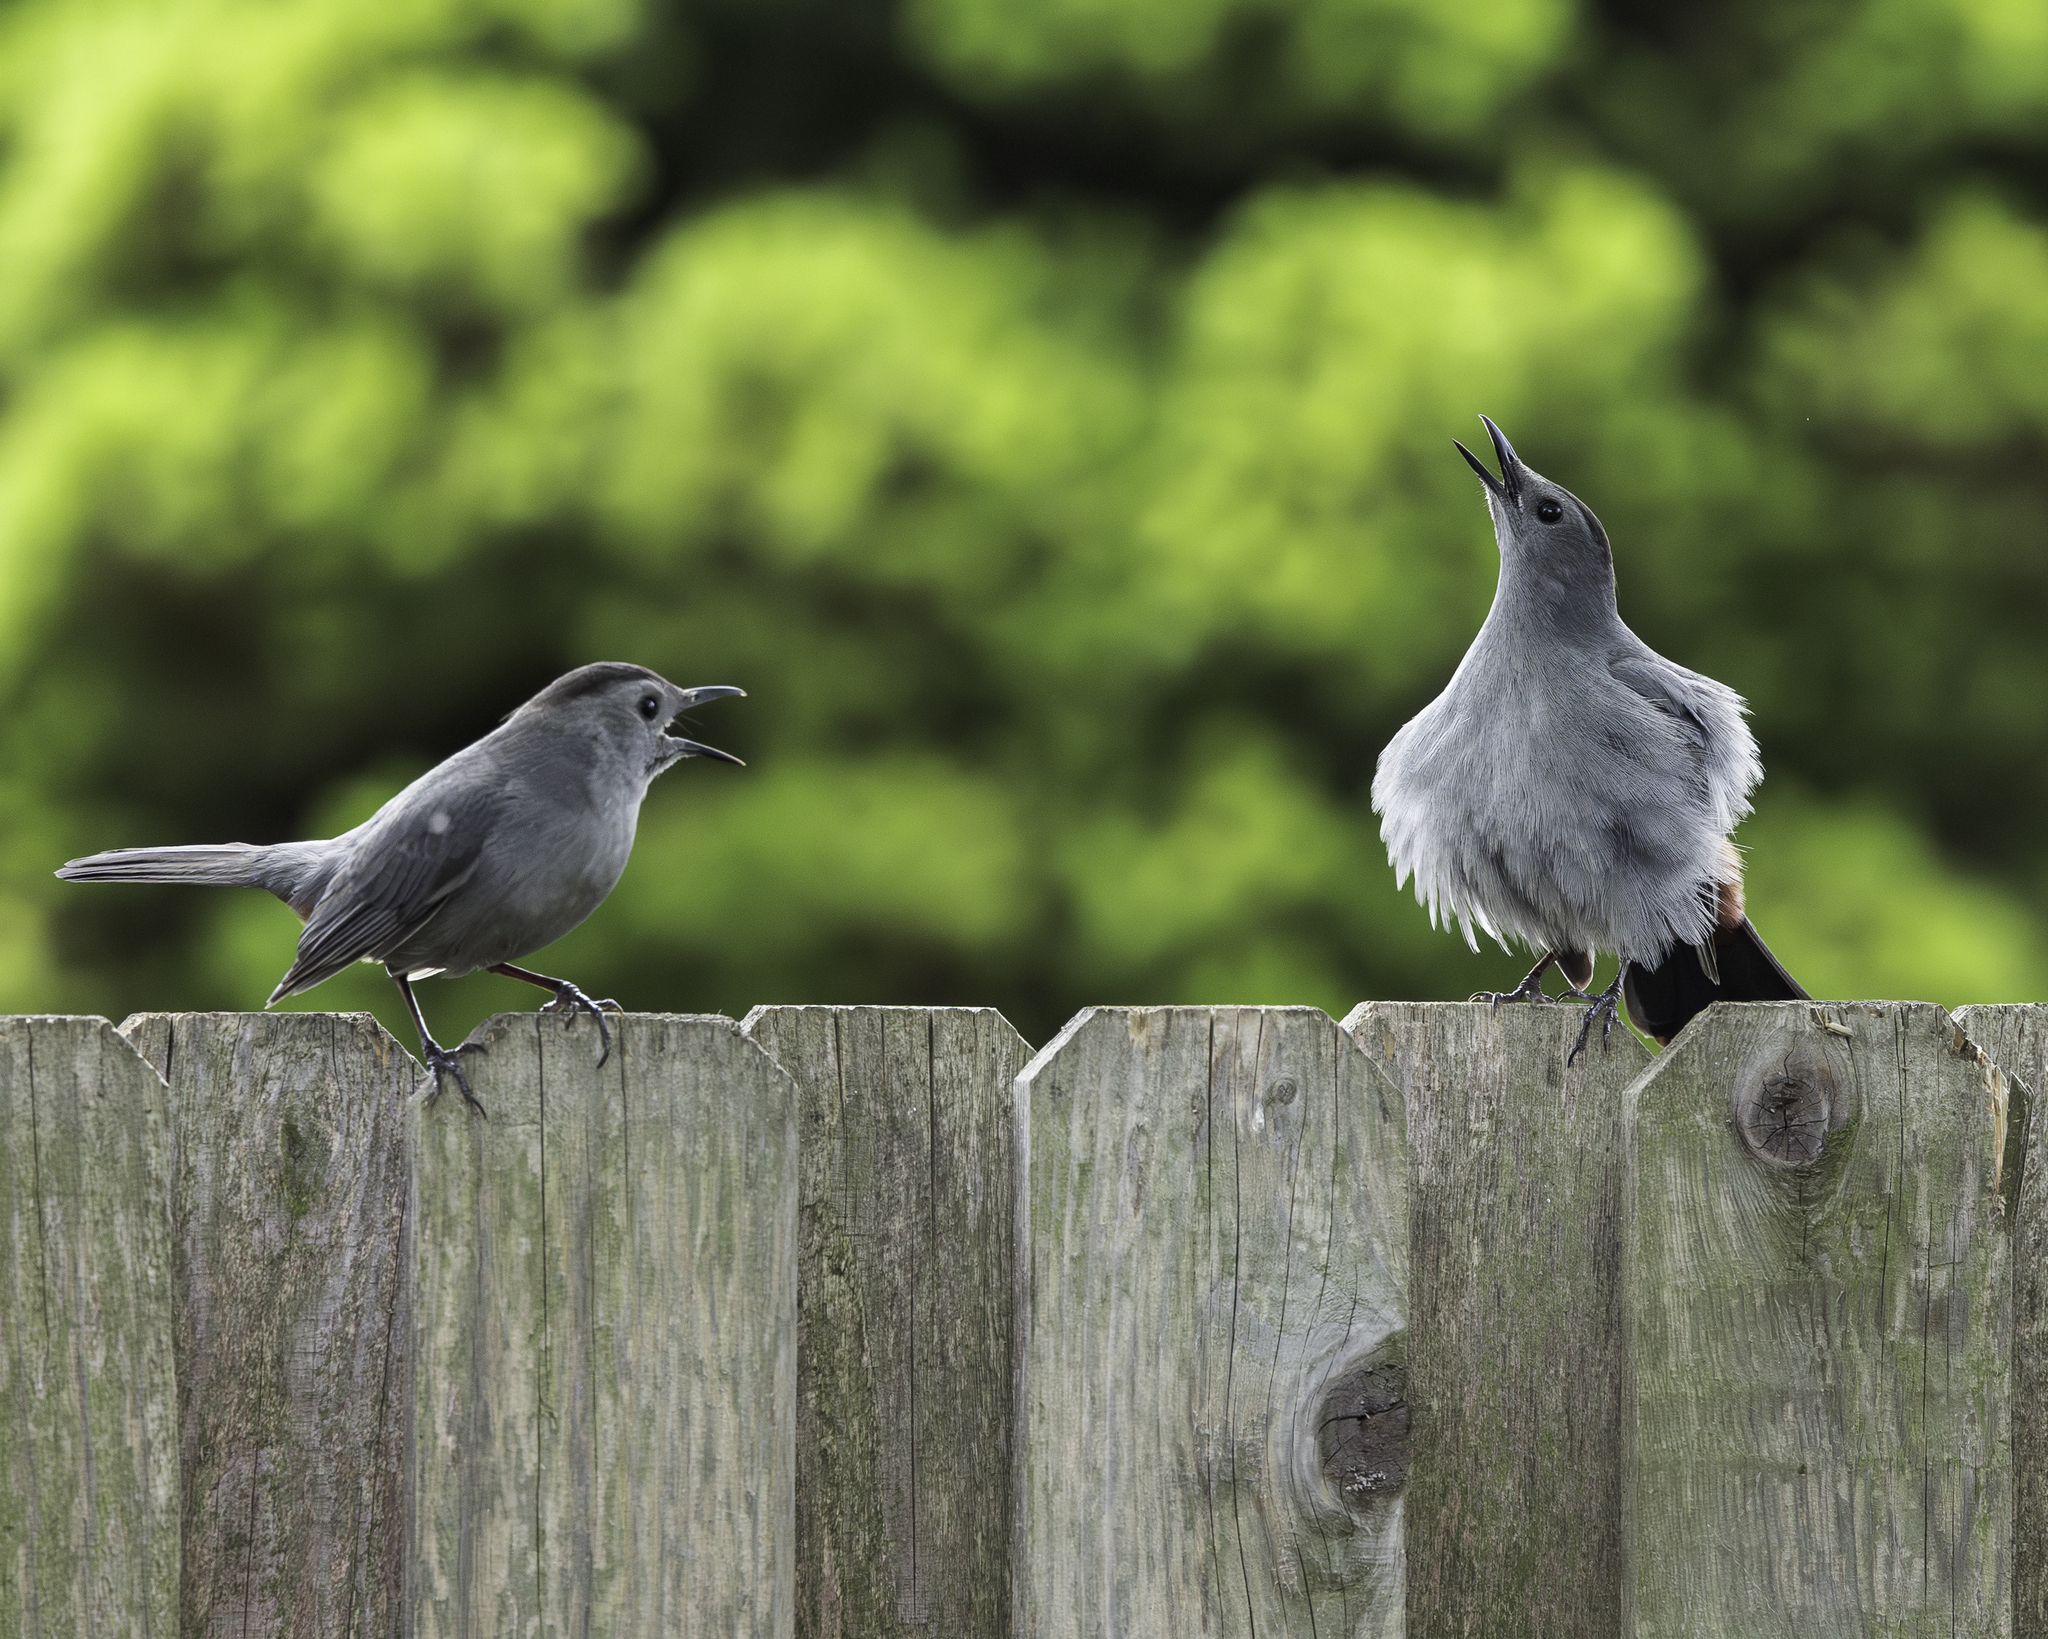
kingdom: Animalia
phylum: Chordata
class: Aves
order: Passeriformes
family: Mimidae
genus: Dumetella
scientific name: Dumetella carolinensis
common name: Gray catbird
